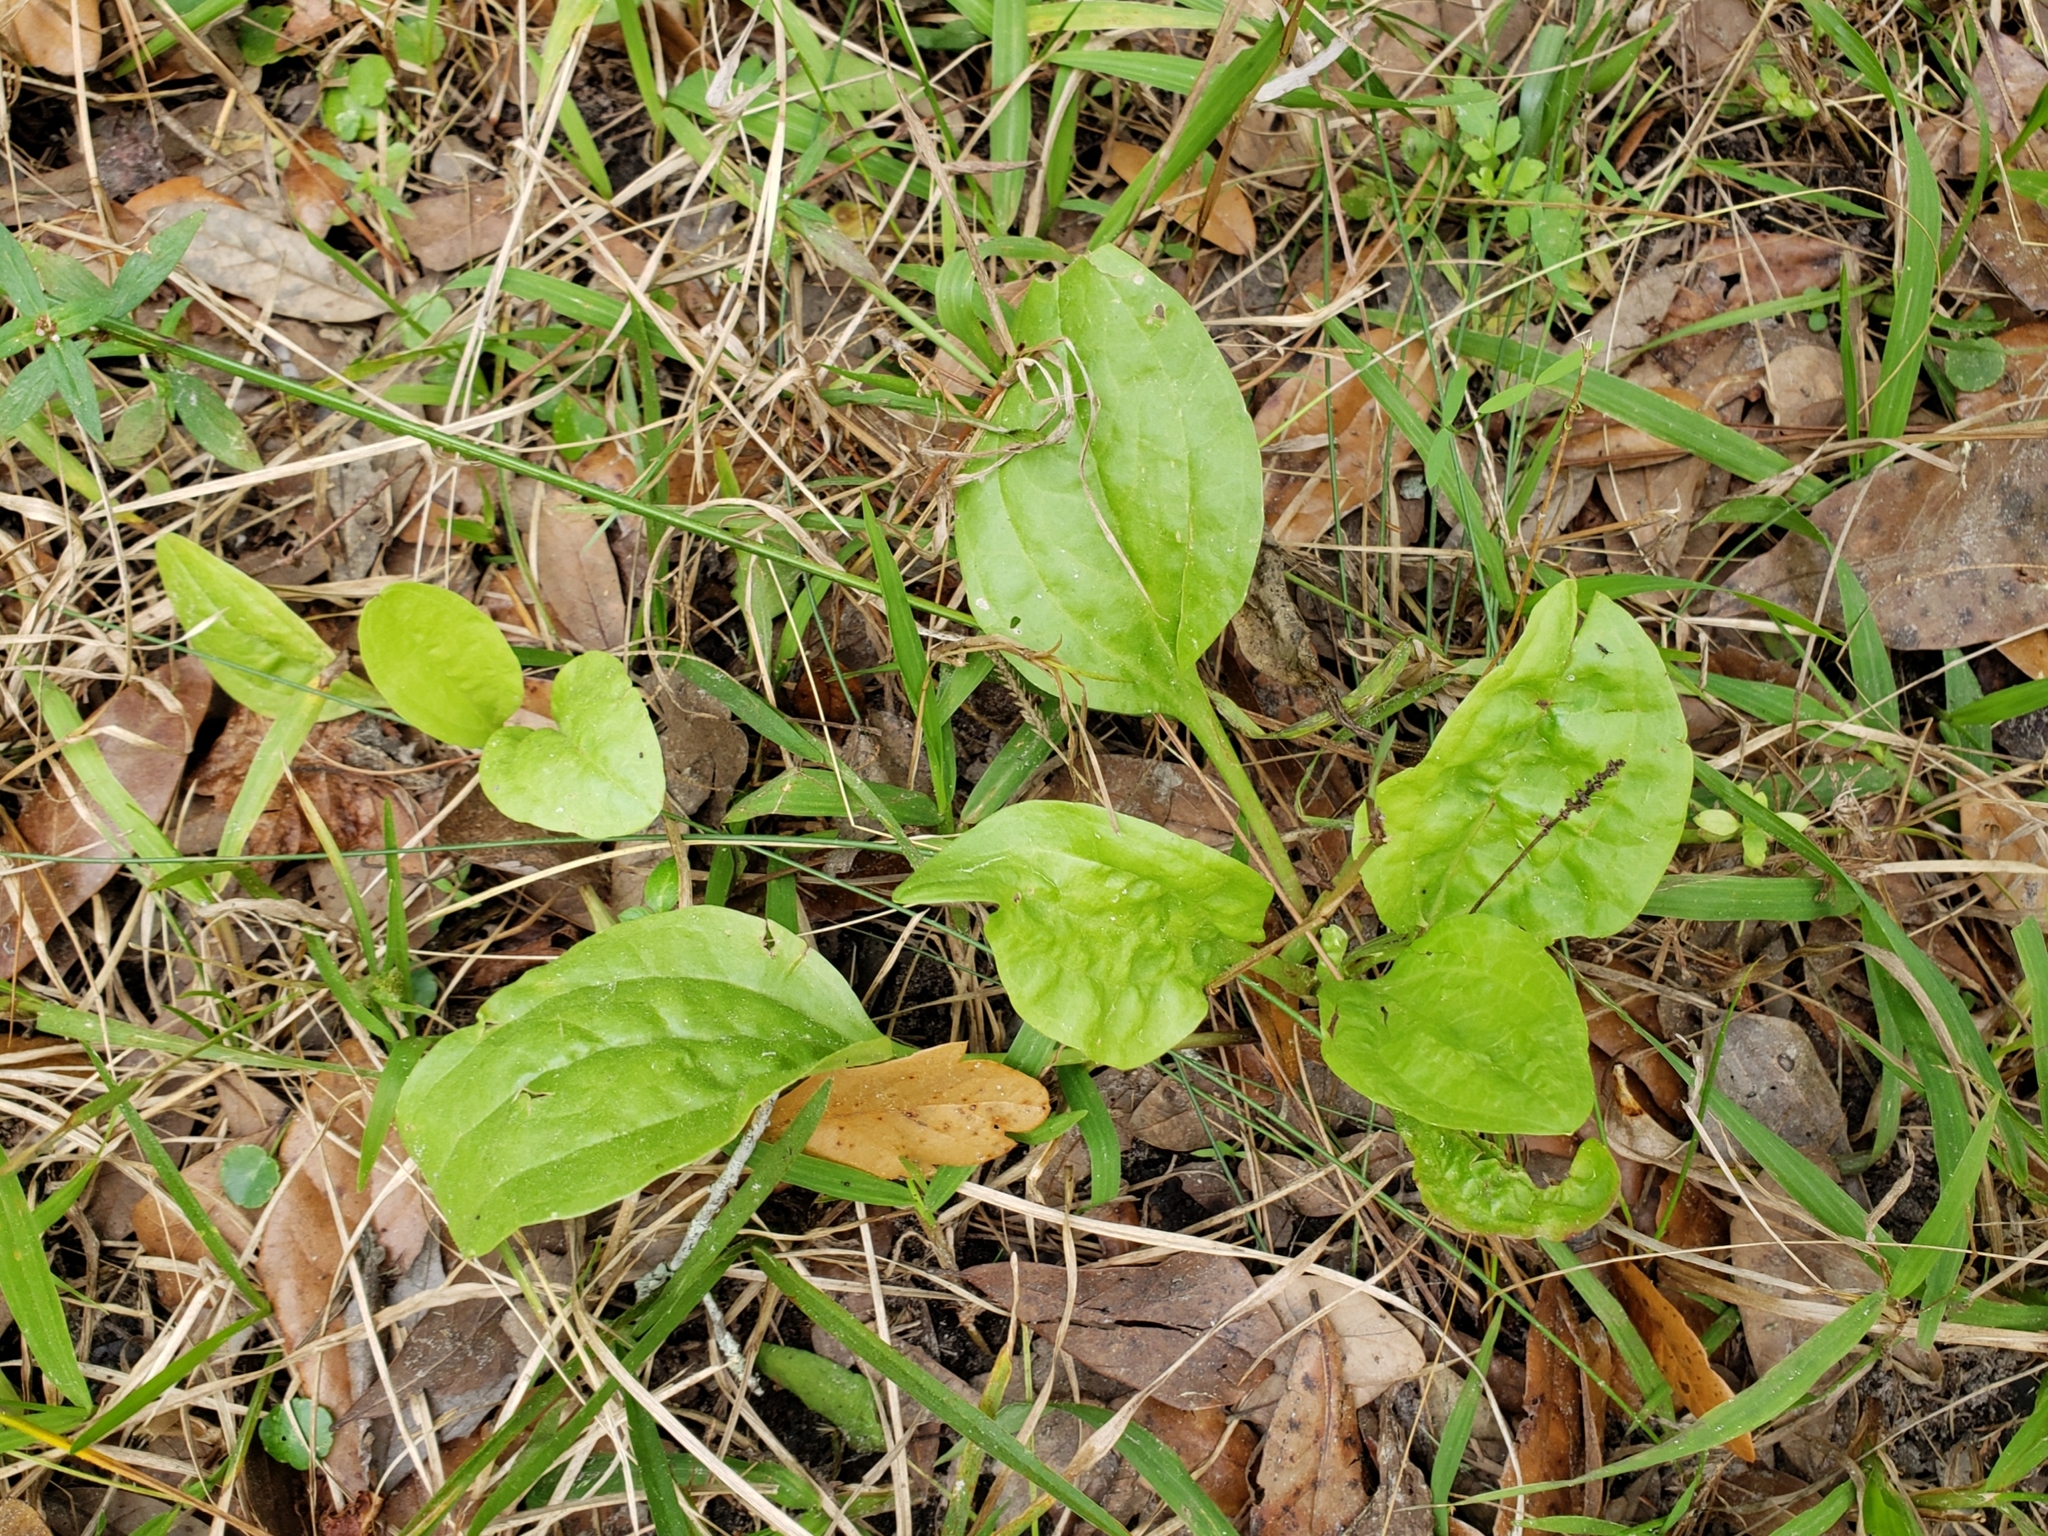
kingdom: Plantae
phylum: Tracheophyta
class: Magnoliopsida
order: Lamiales
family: Plantaginaceae
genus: Plantago
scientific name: Plantago major
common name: Common plantain
